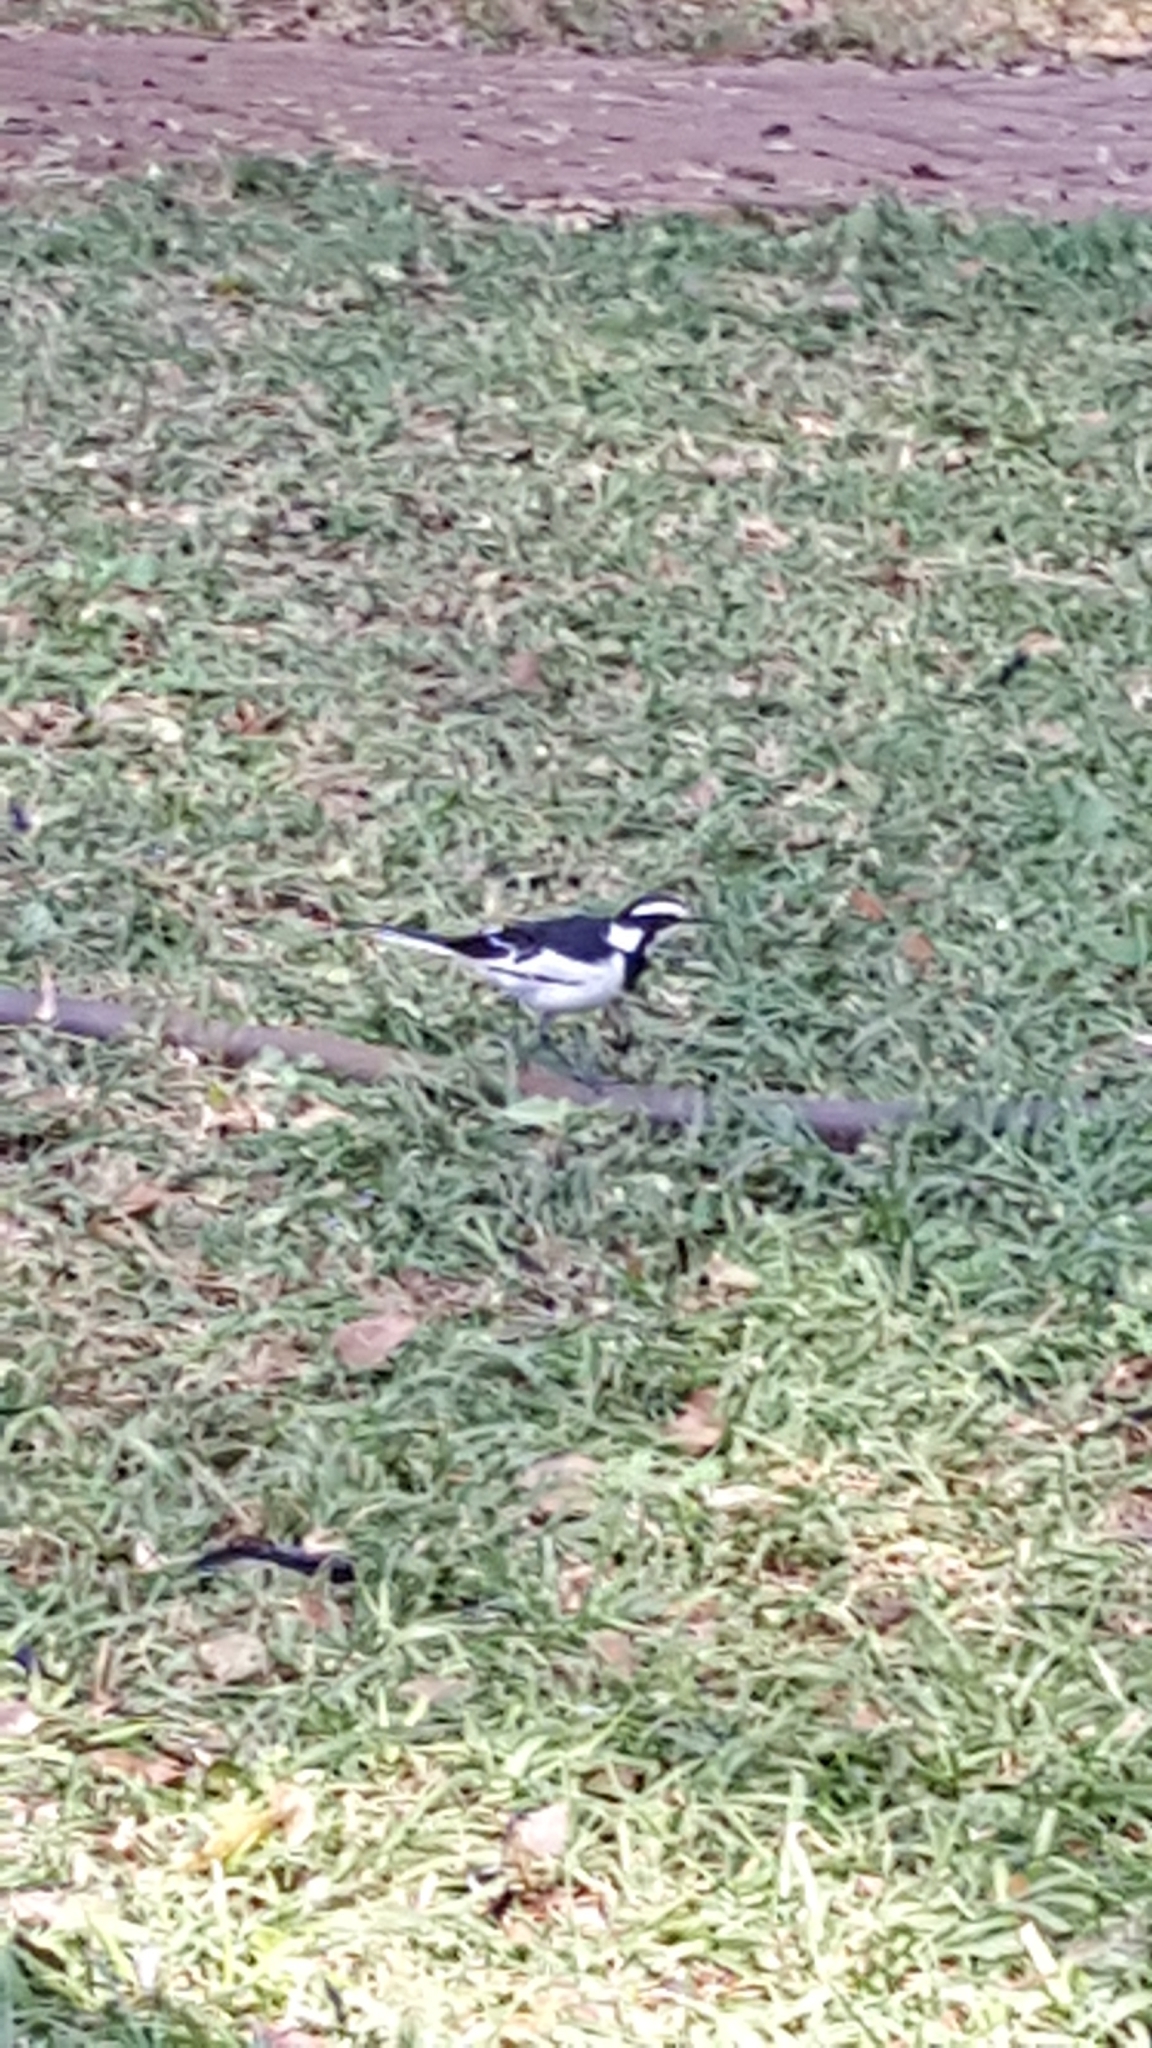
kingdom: Animalia
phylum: Chordata
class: Aves
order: Passeriformes
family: Motacillidae
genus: Motacilla
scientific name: Motacilla aguimp
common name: African pied wagtail
